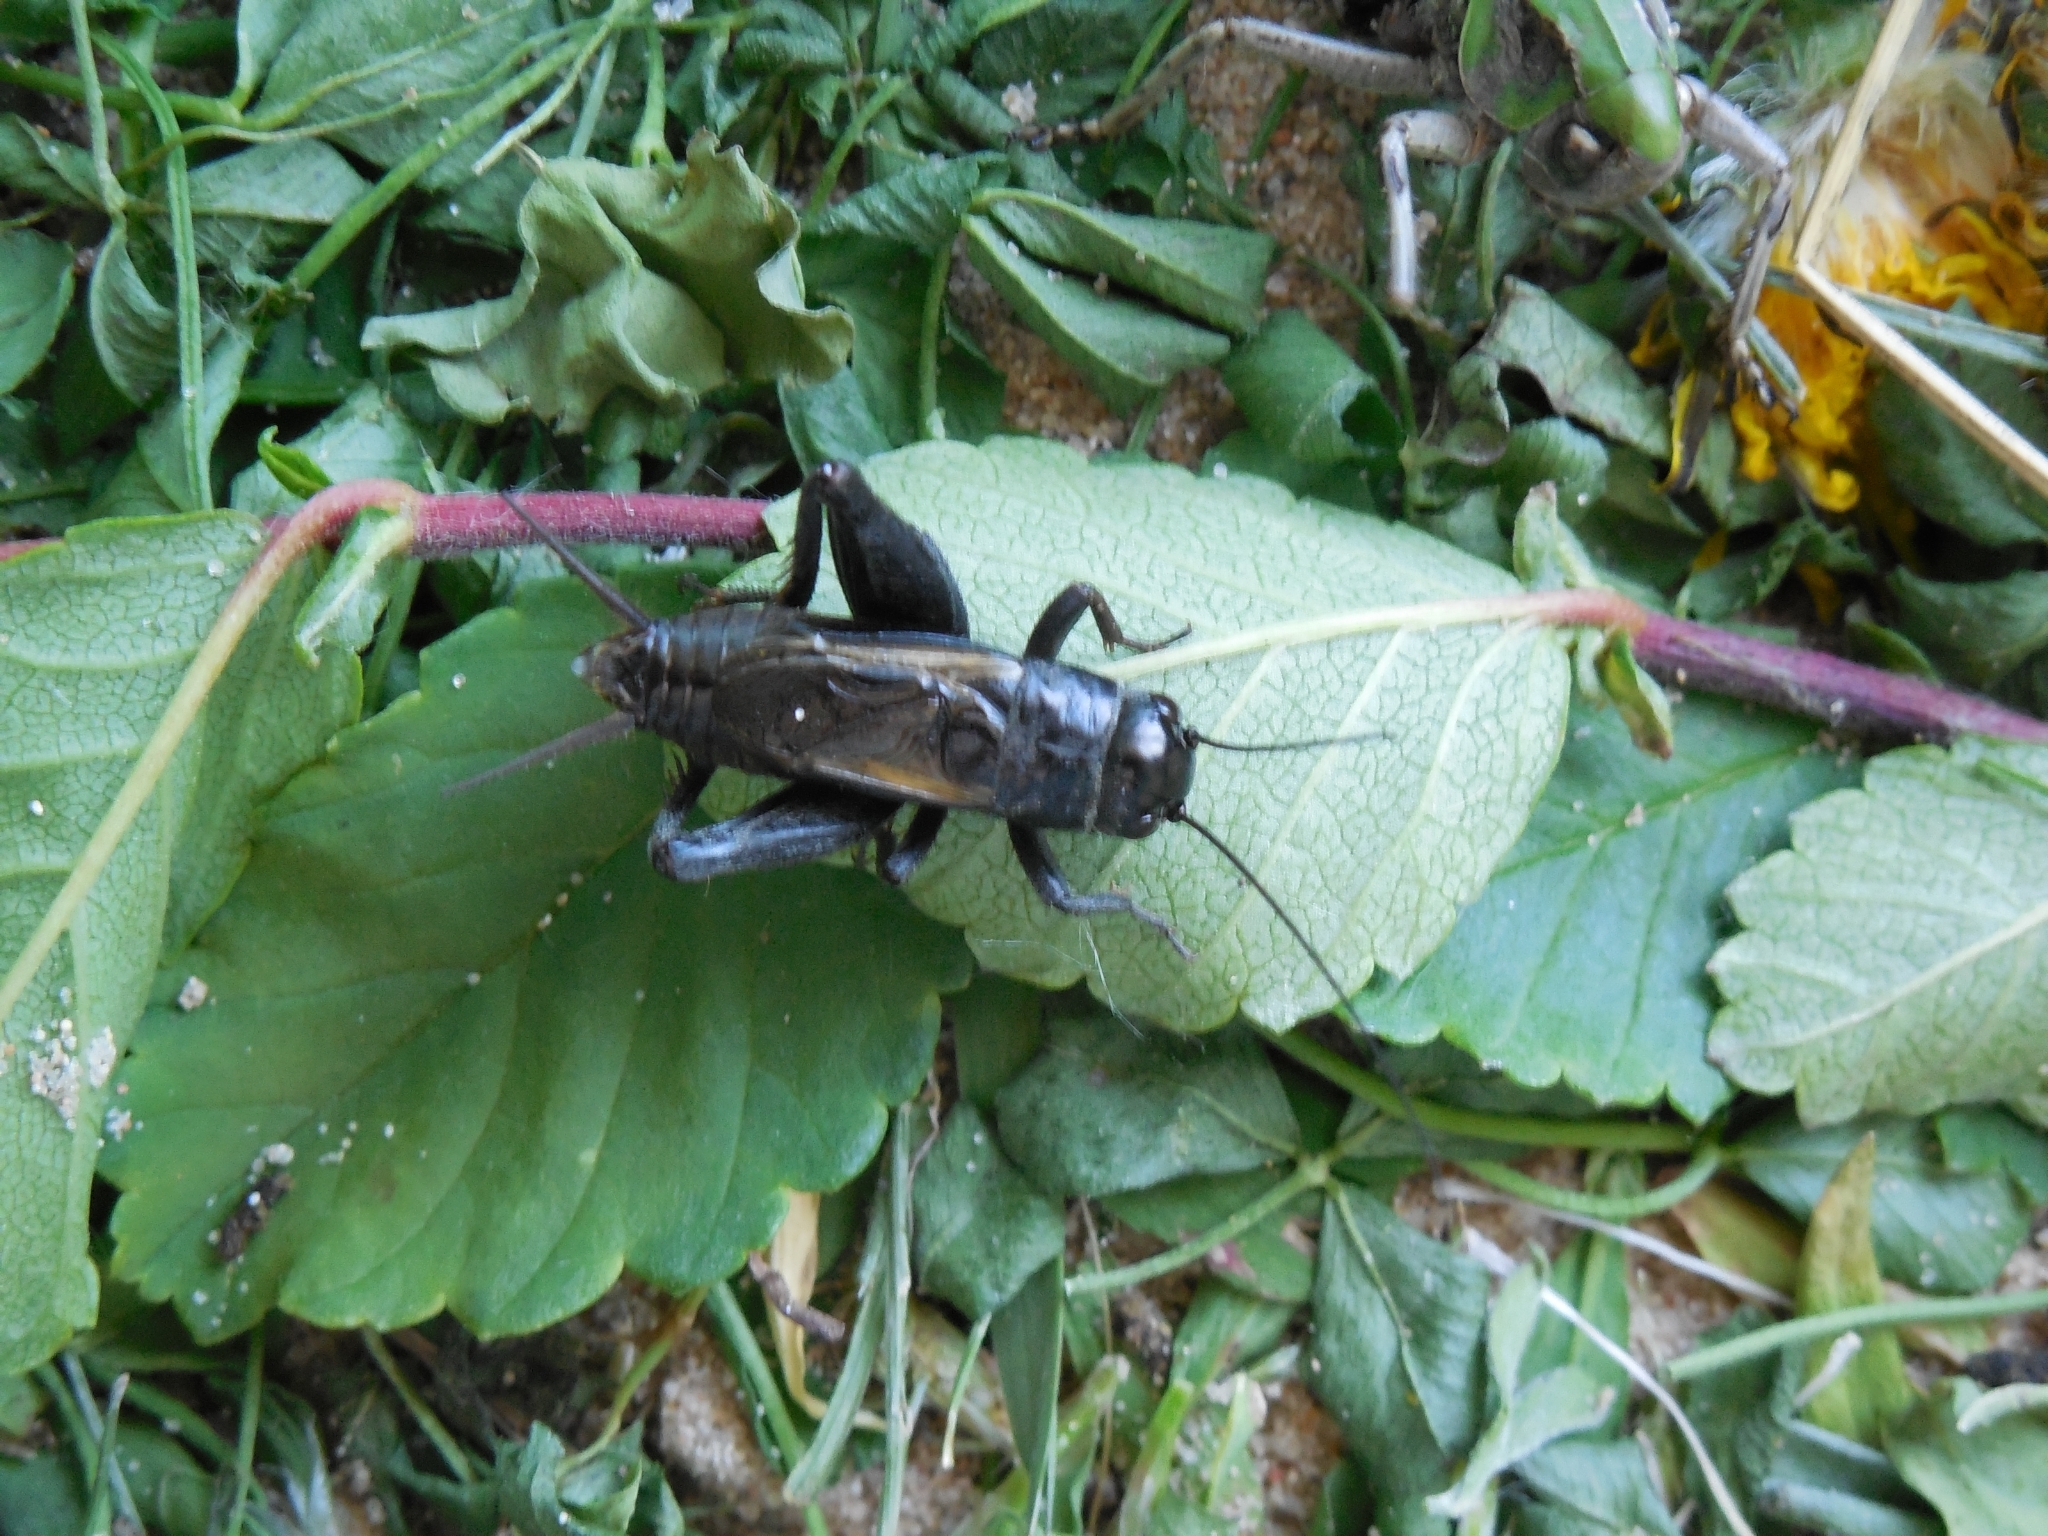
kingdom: Animalia
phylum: Arthropoda
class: Insecta
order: Orthoptera
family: Gryllidae
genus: Melanogryllus
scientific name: Melanogryllus desertus
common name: Desert cricket
